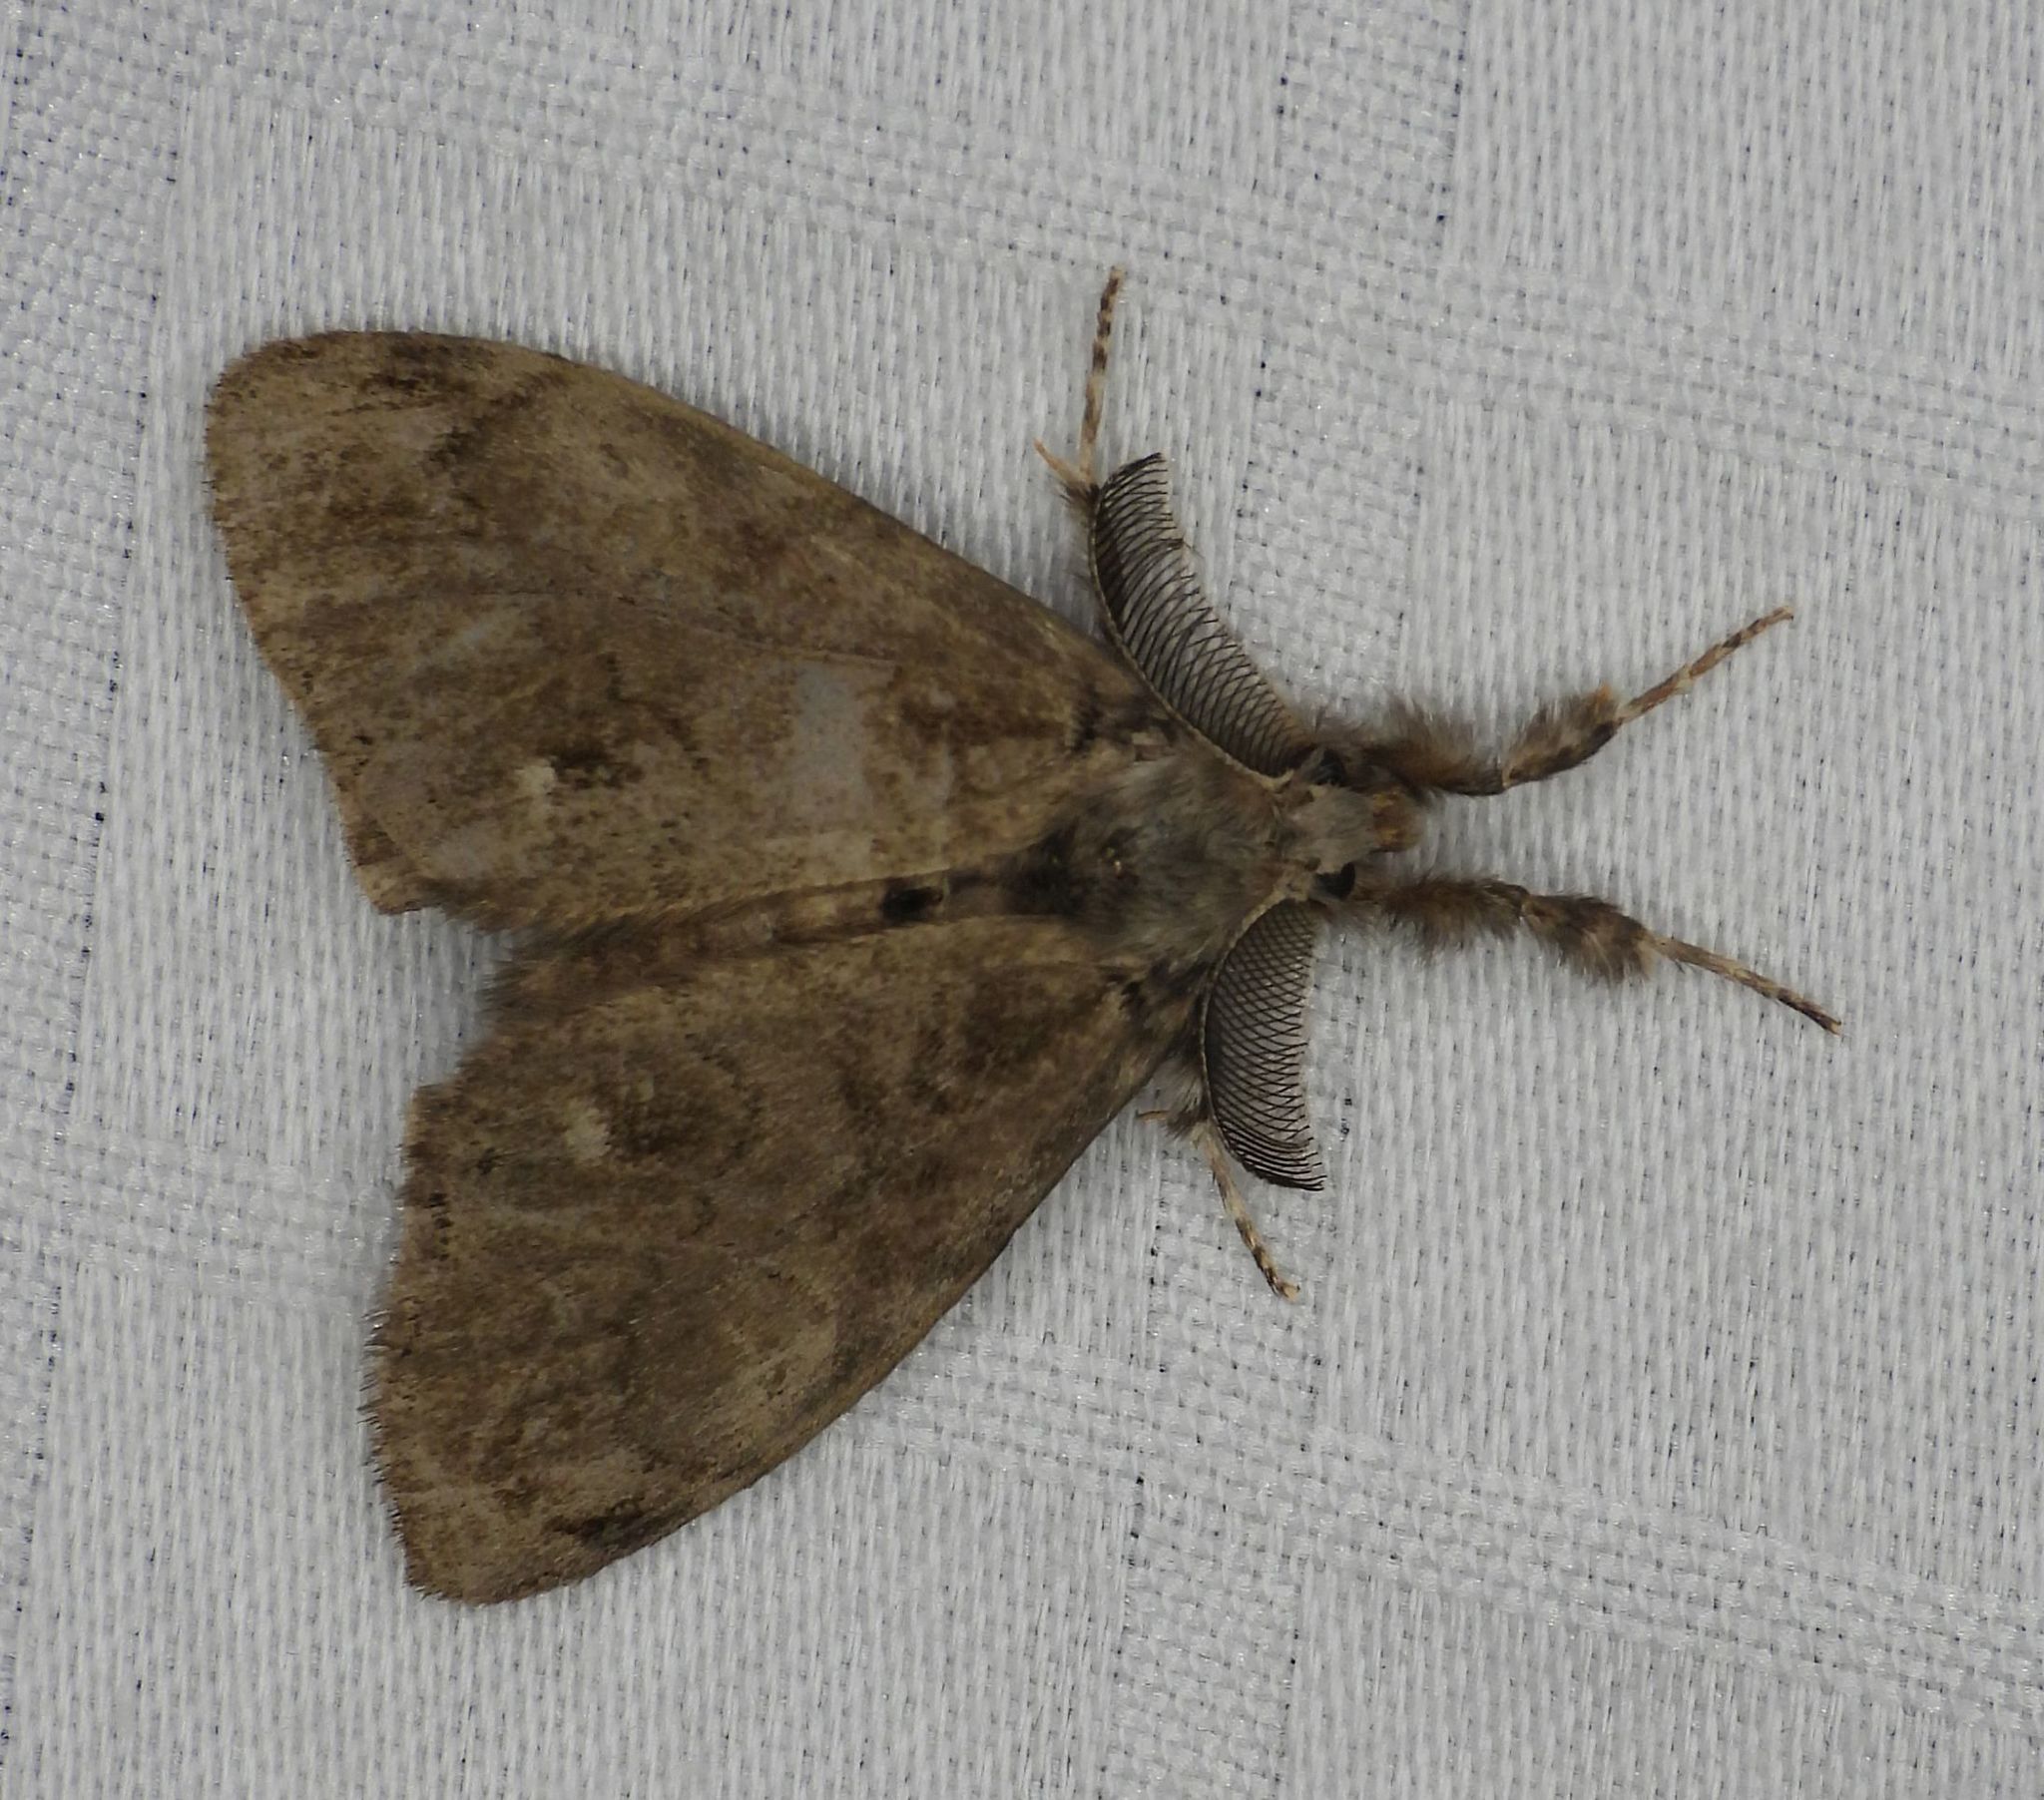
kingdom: Animalia
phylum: Arthropoda
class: Insecta
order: Lepidoptera
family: Erebidae
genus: Orgyia
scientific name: Orgyia leucostigma
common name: White-marked tussock moth
